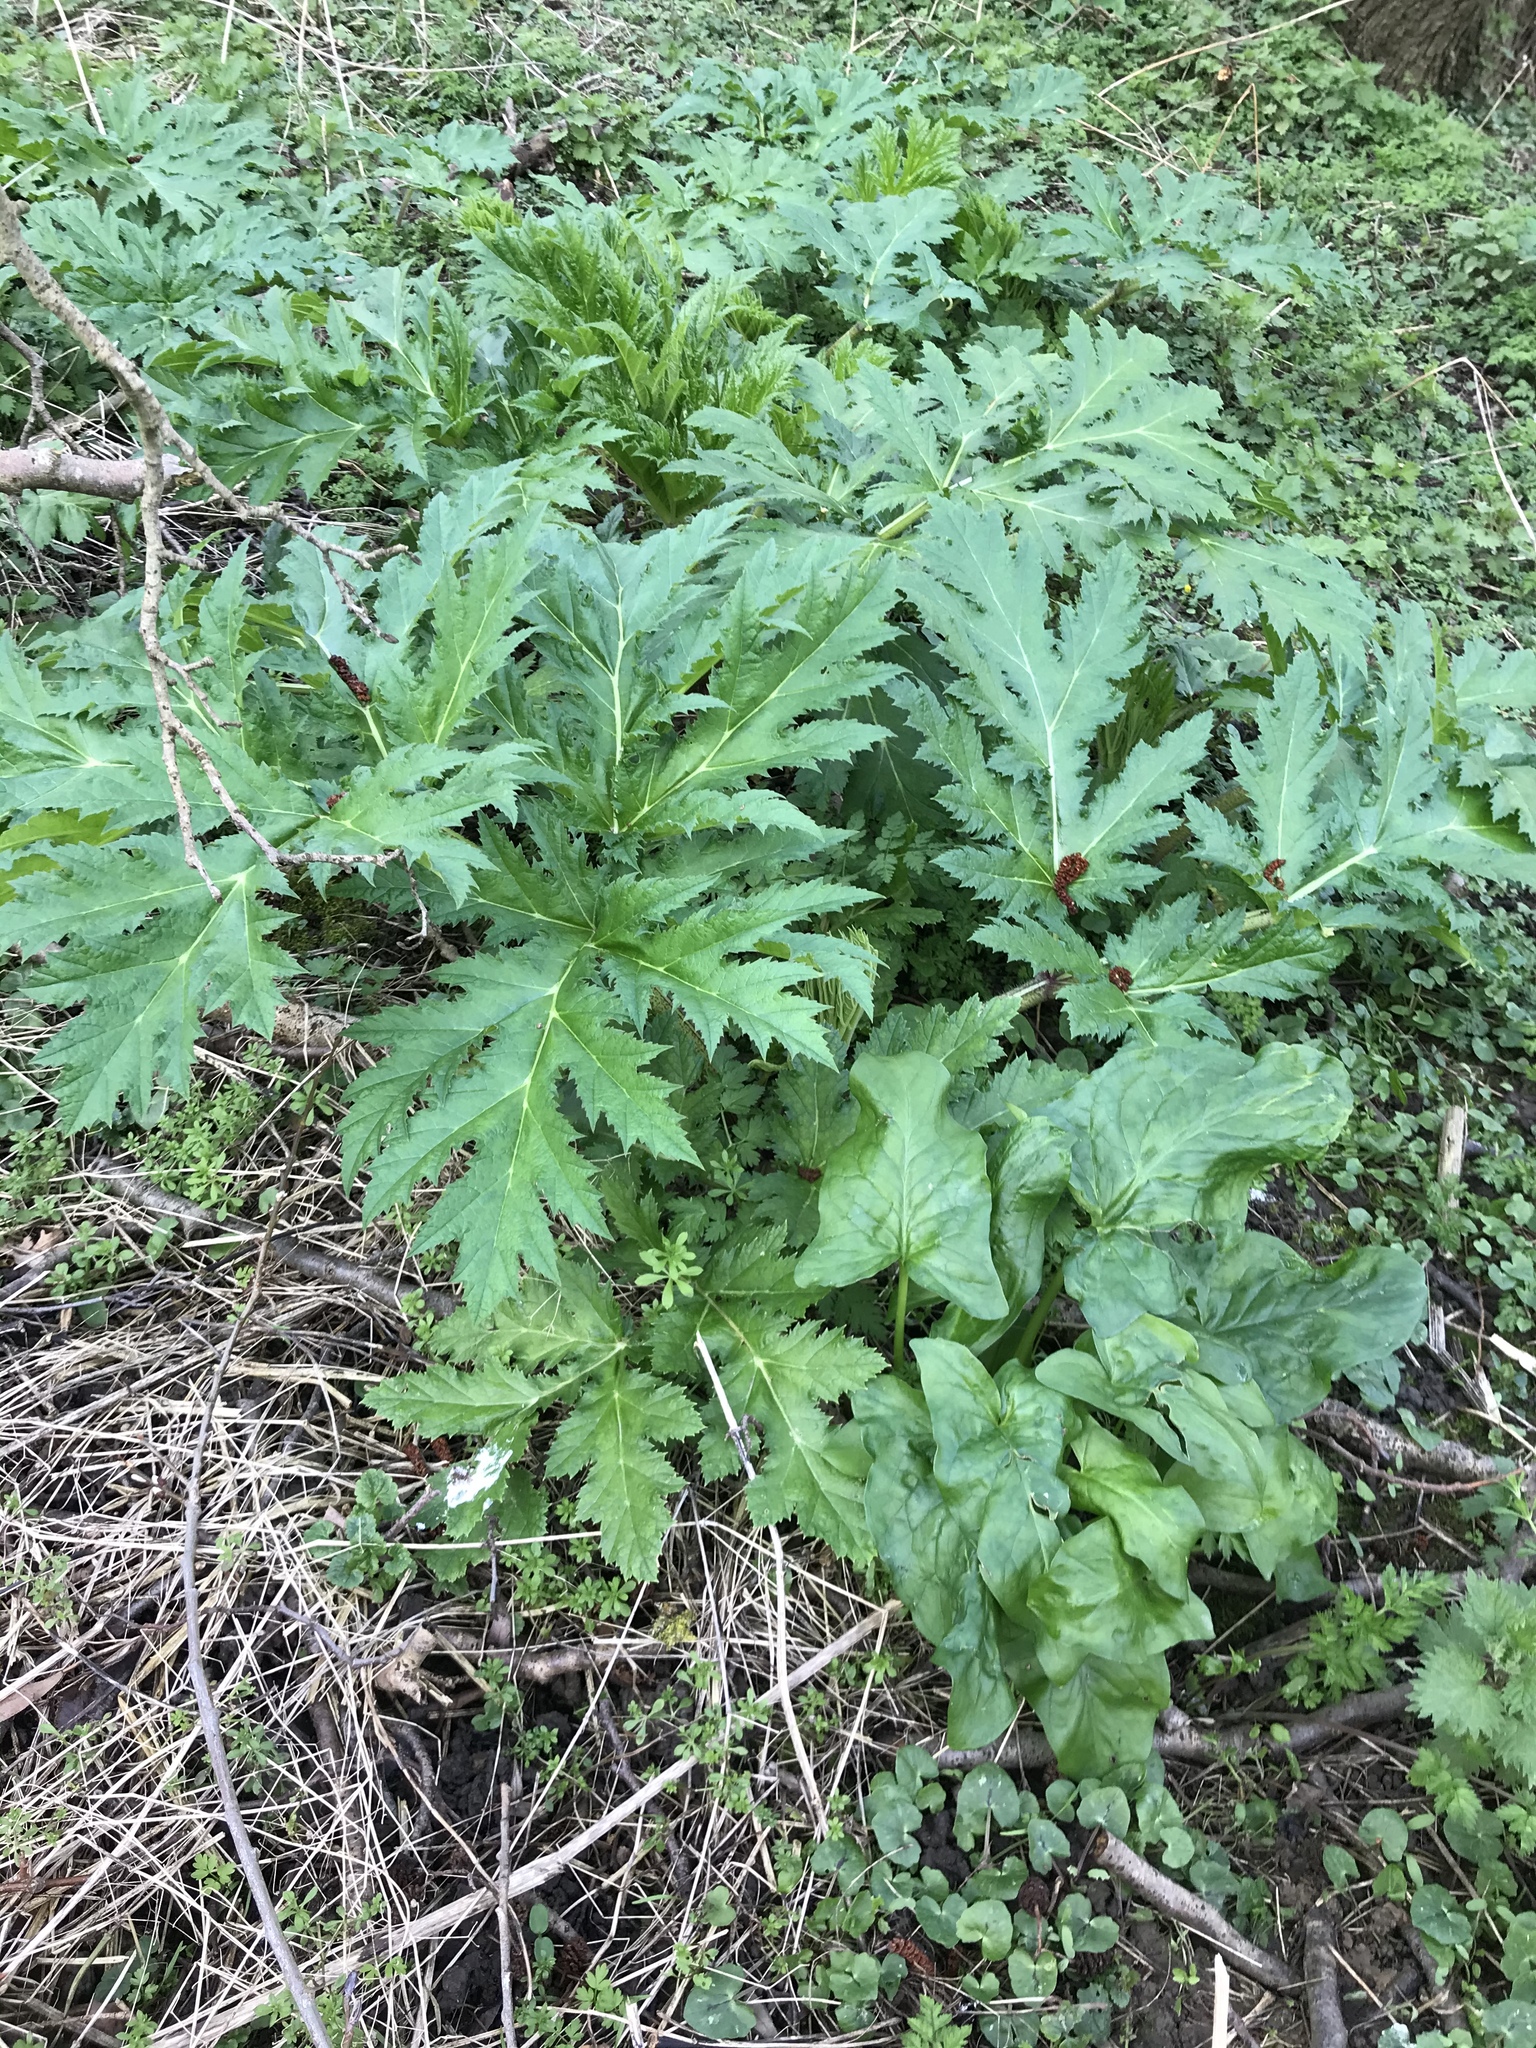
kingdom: Plantae
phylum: Tracheophyta
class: Magnoliopsida
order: Apiales
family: Apiaceae
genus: Heracleum
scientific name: Heracleum mantegazzianum
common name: Giant hogweed
